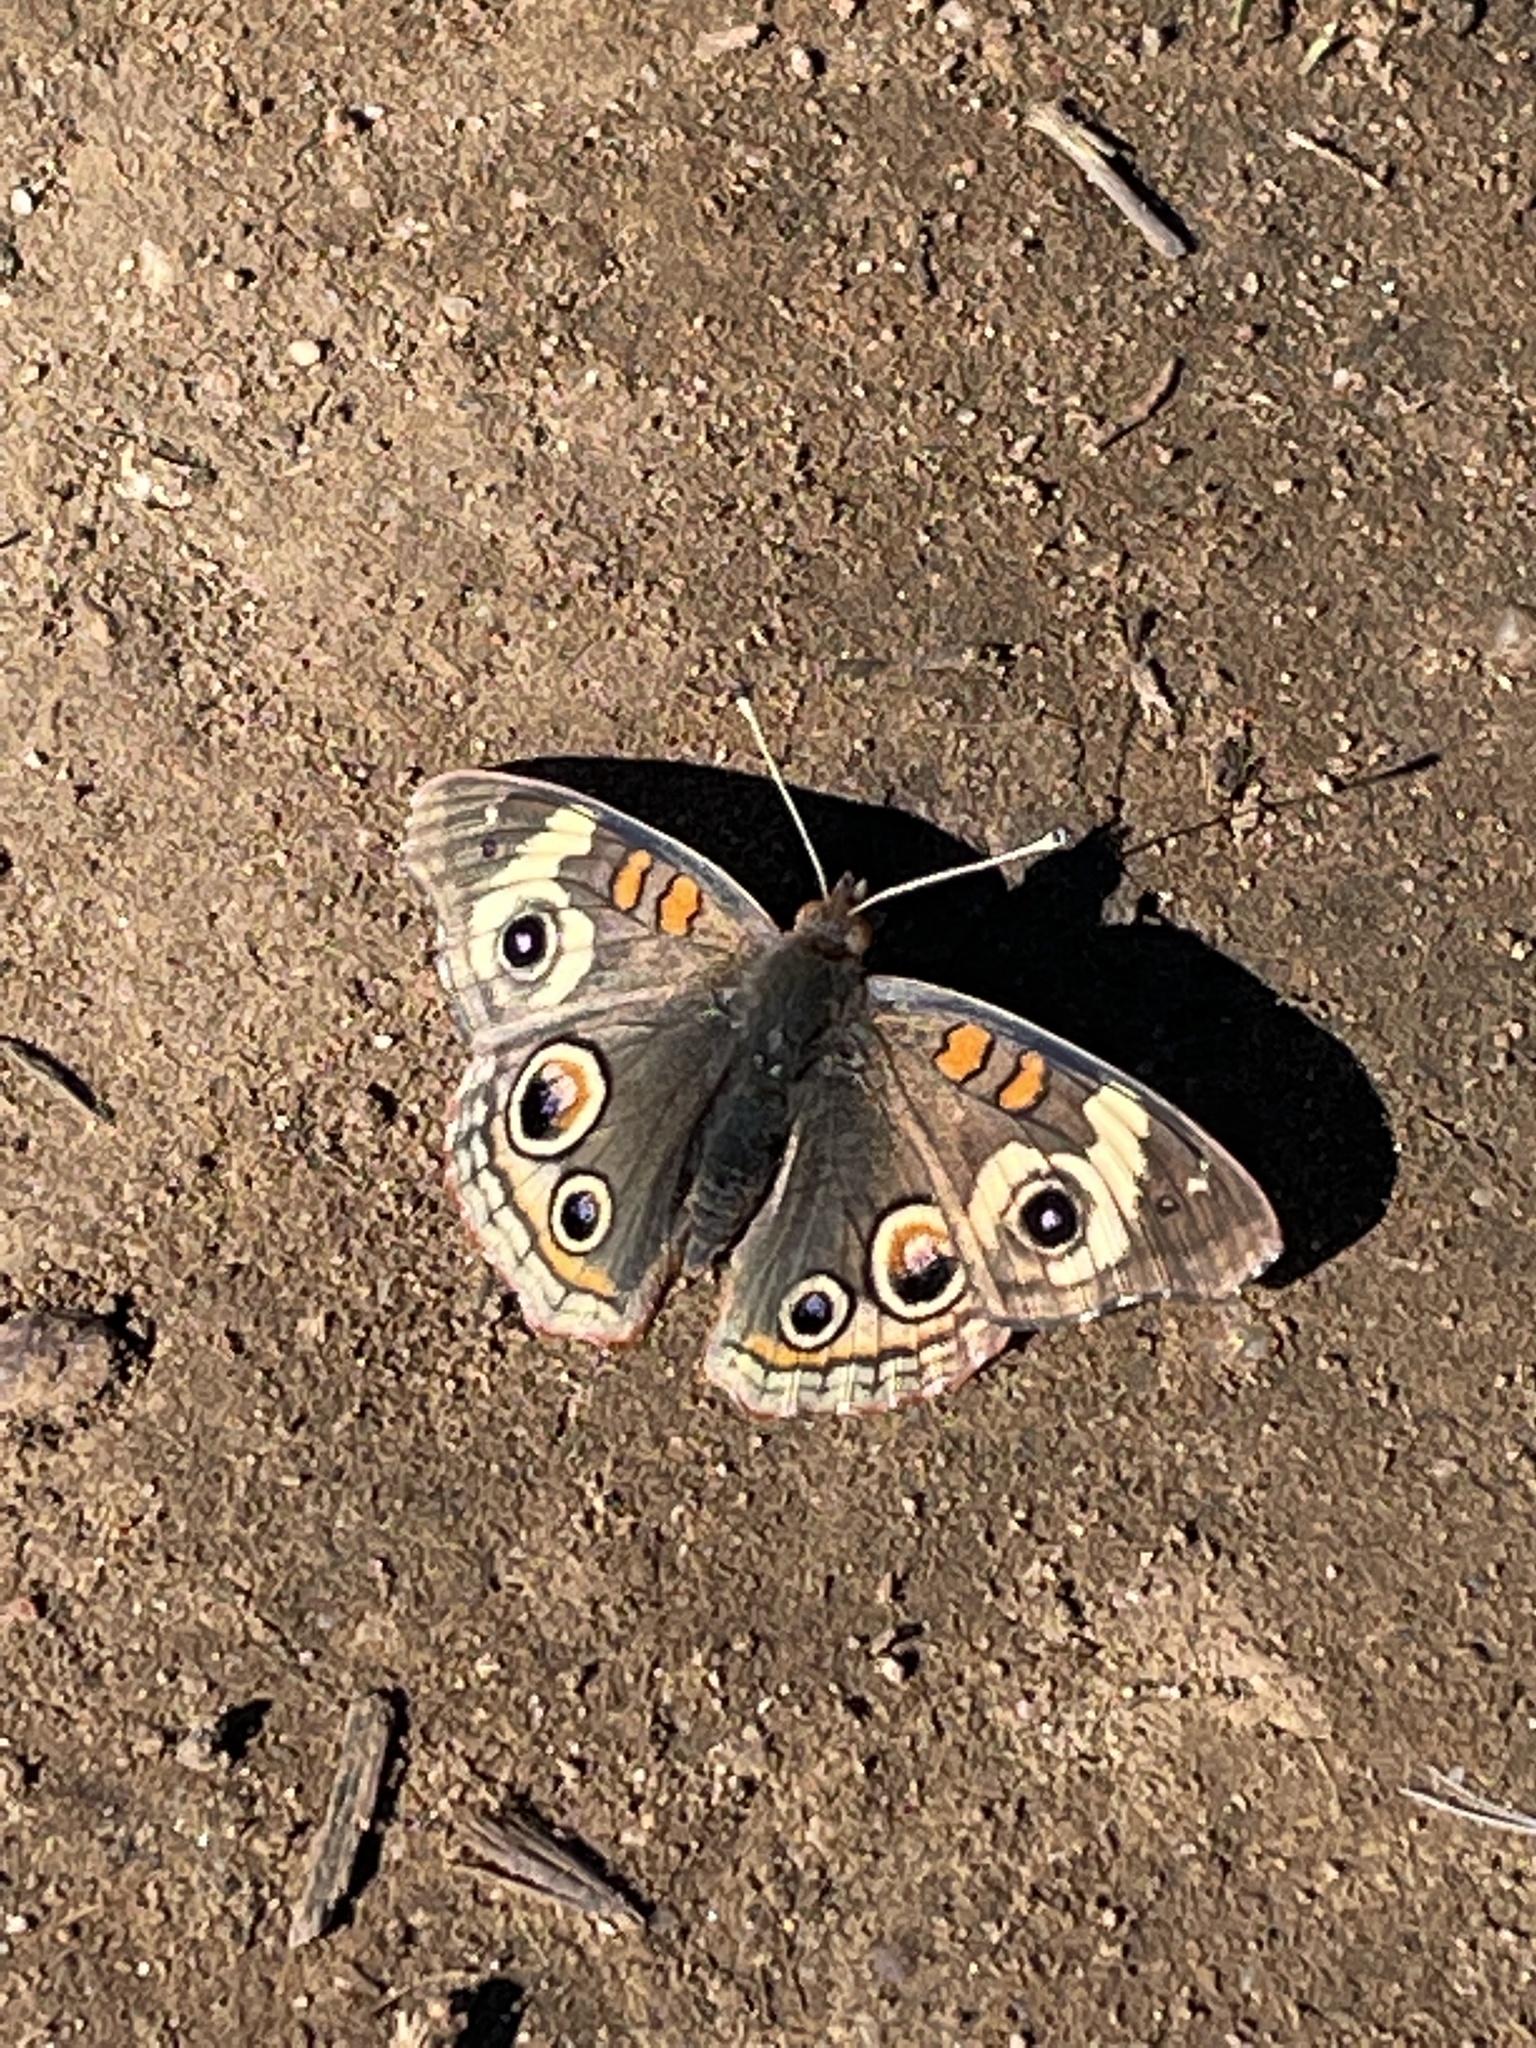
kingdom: Animalia
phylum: Arthropoda
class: Insecta
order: Lepidoptera
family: Nymphalidae
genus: Junonia
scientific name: Junonia grisea
